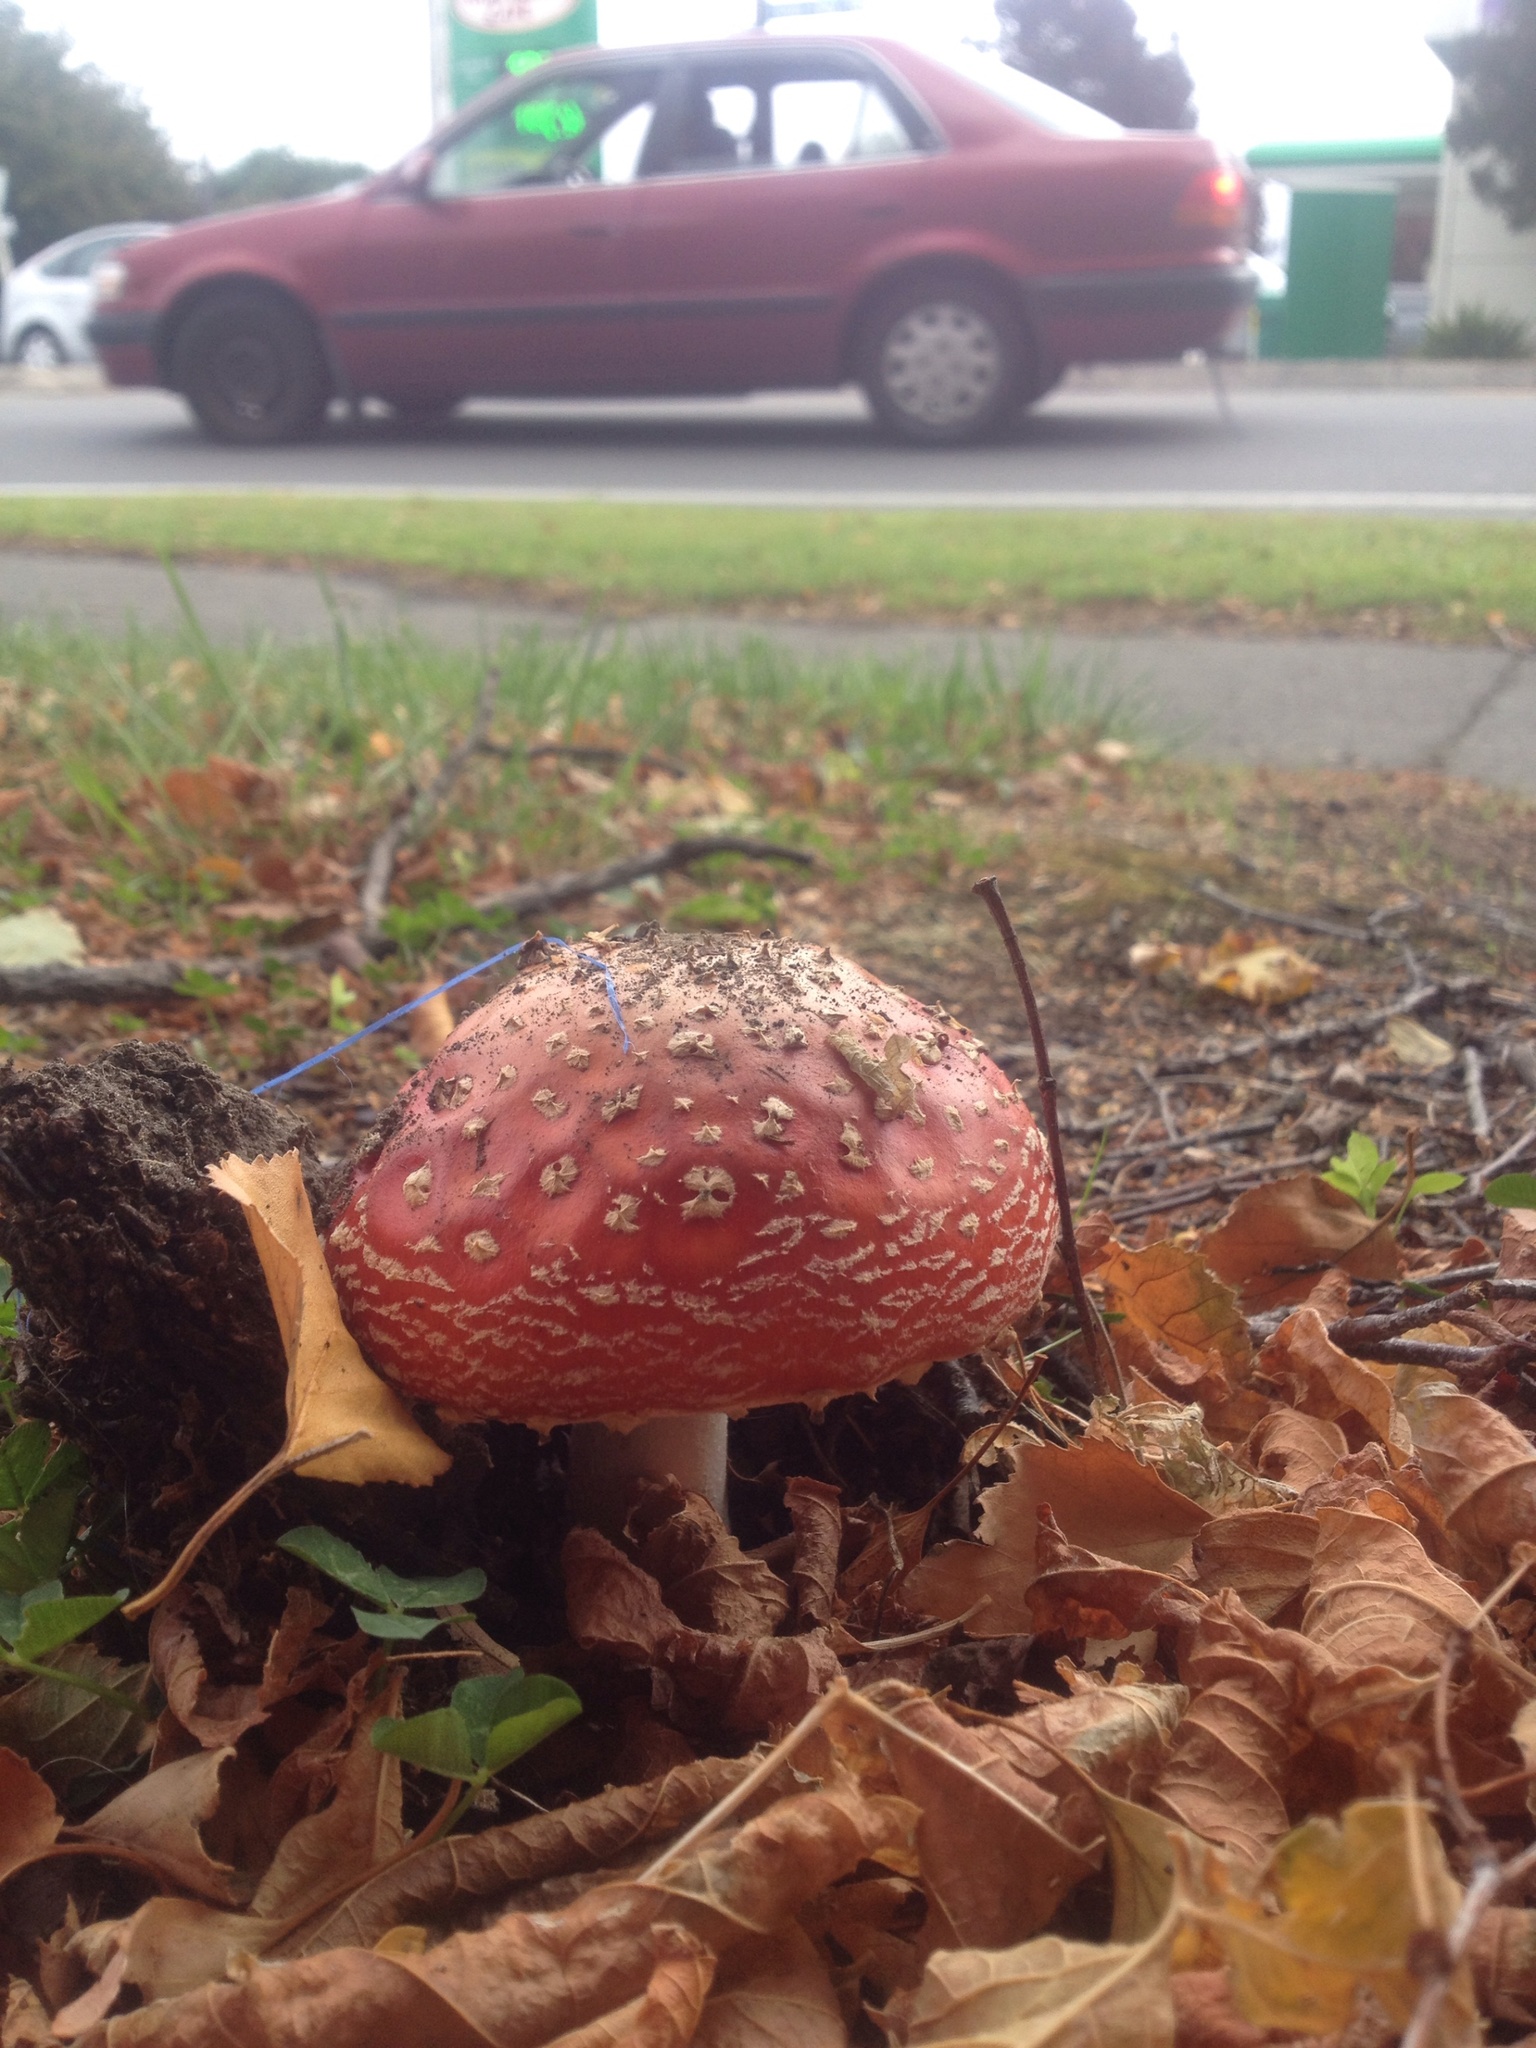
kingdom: Fungi
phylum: Basidiomycota
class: Agaricomycetes
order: Agaricales
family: Amanitaceae
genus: Amanita
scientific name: Amanita muscaria
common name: Fly agaric
